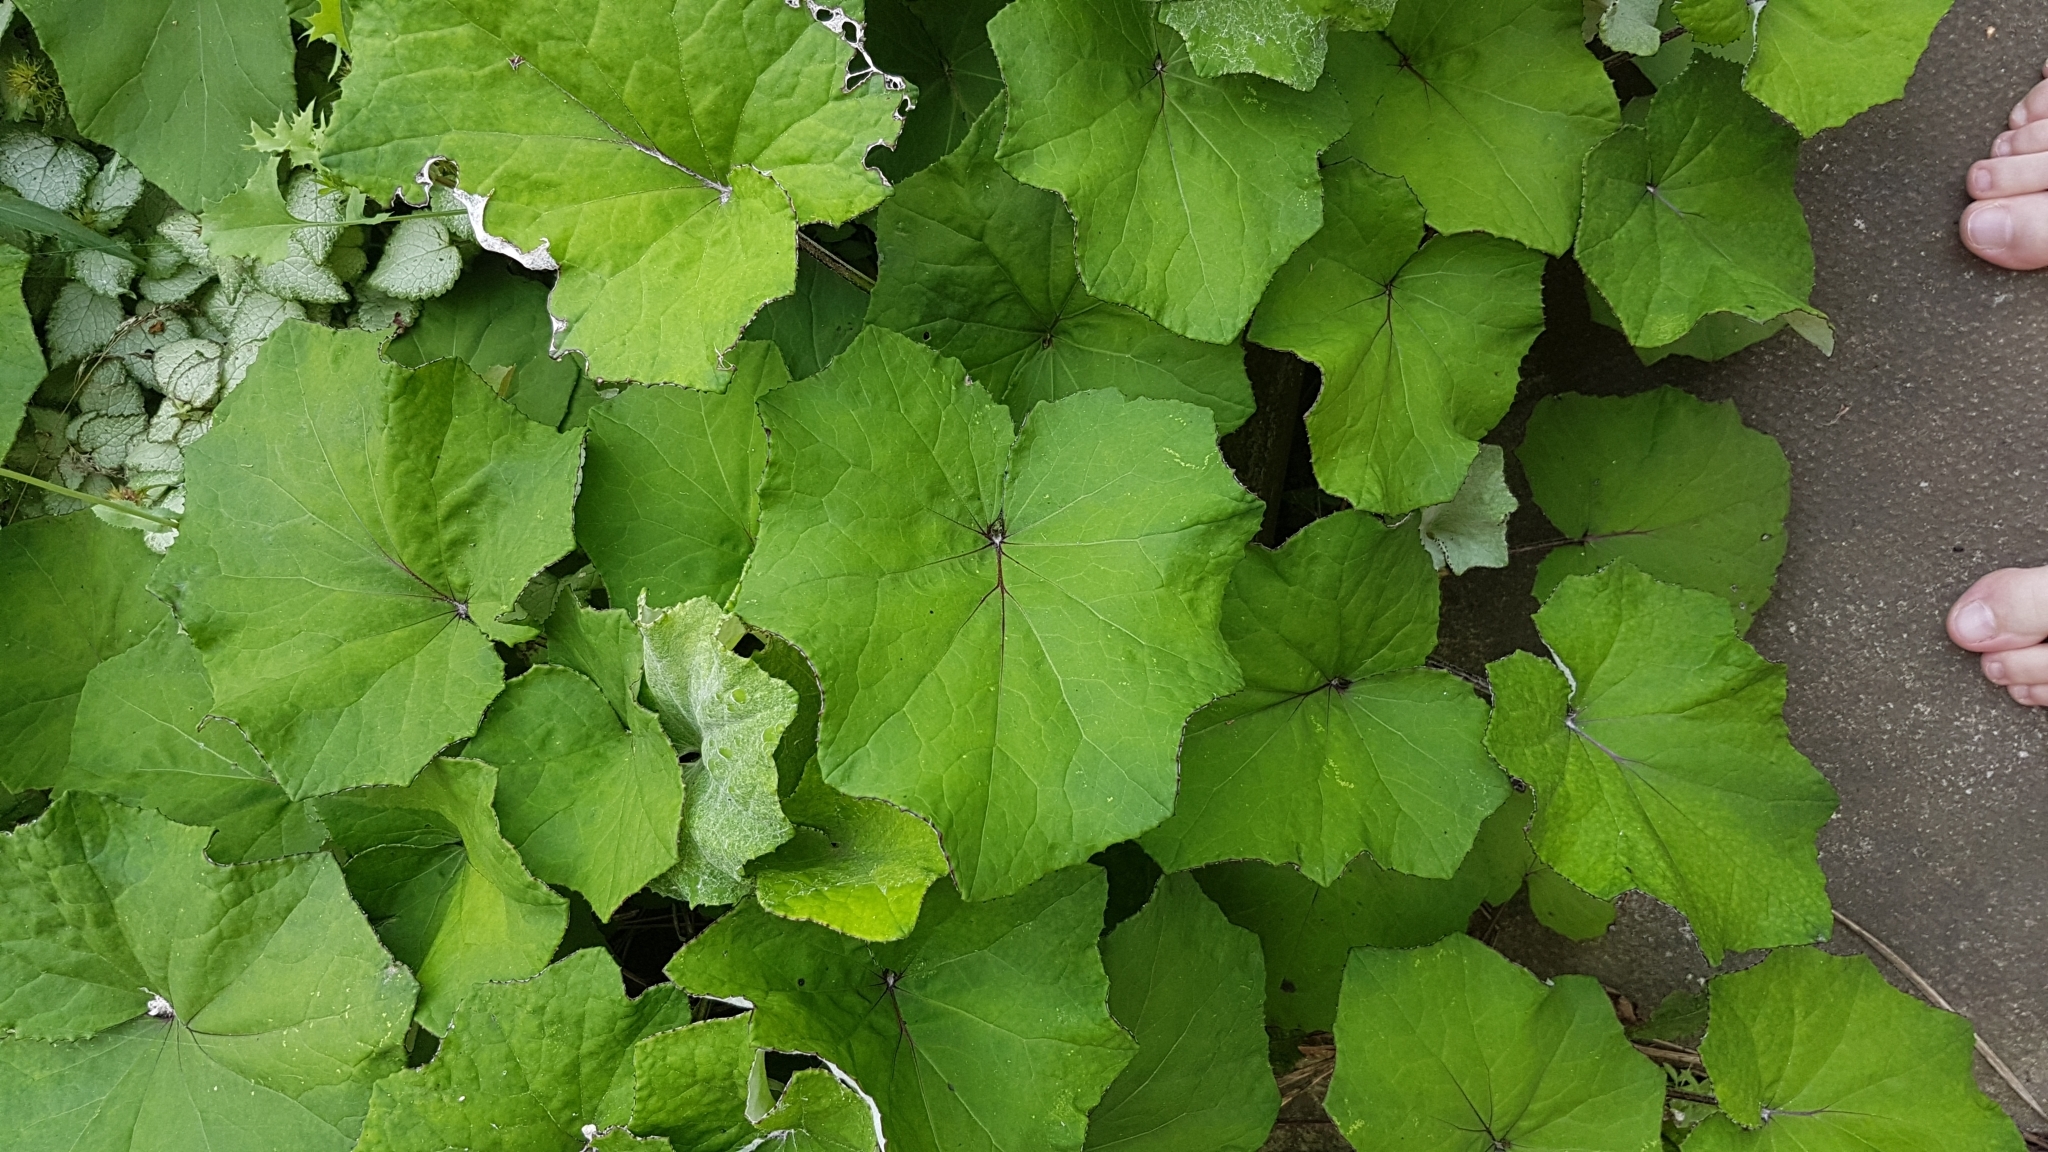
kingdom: Plantae
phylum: Tracheophyta
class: Magnoliopsida
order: Asterales
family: Asteraceae
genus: Tussilago
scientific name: Tussilago farfara
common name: Coltsfoot
